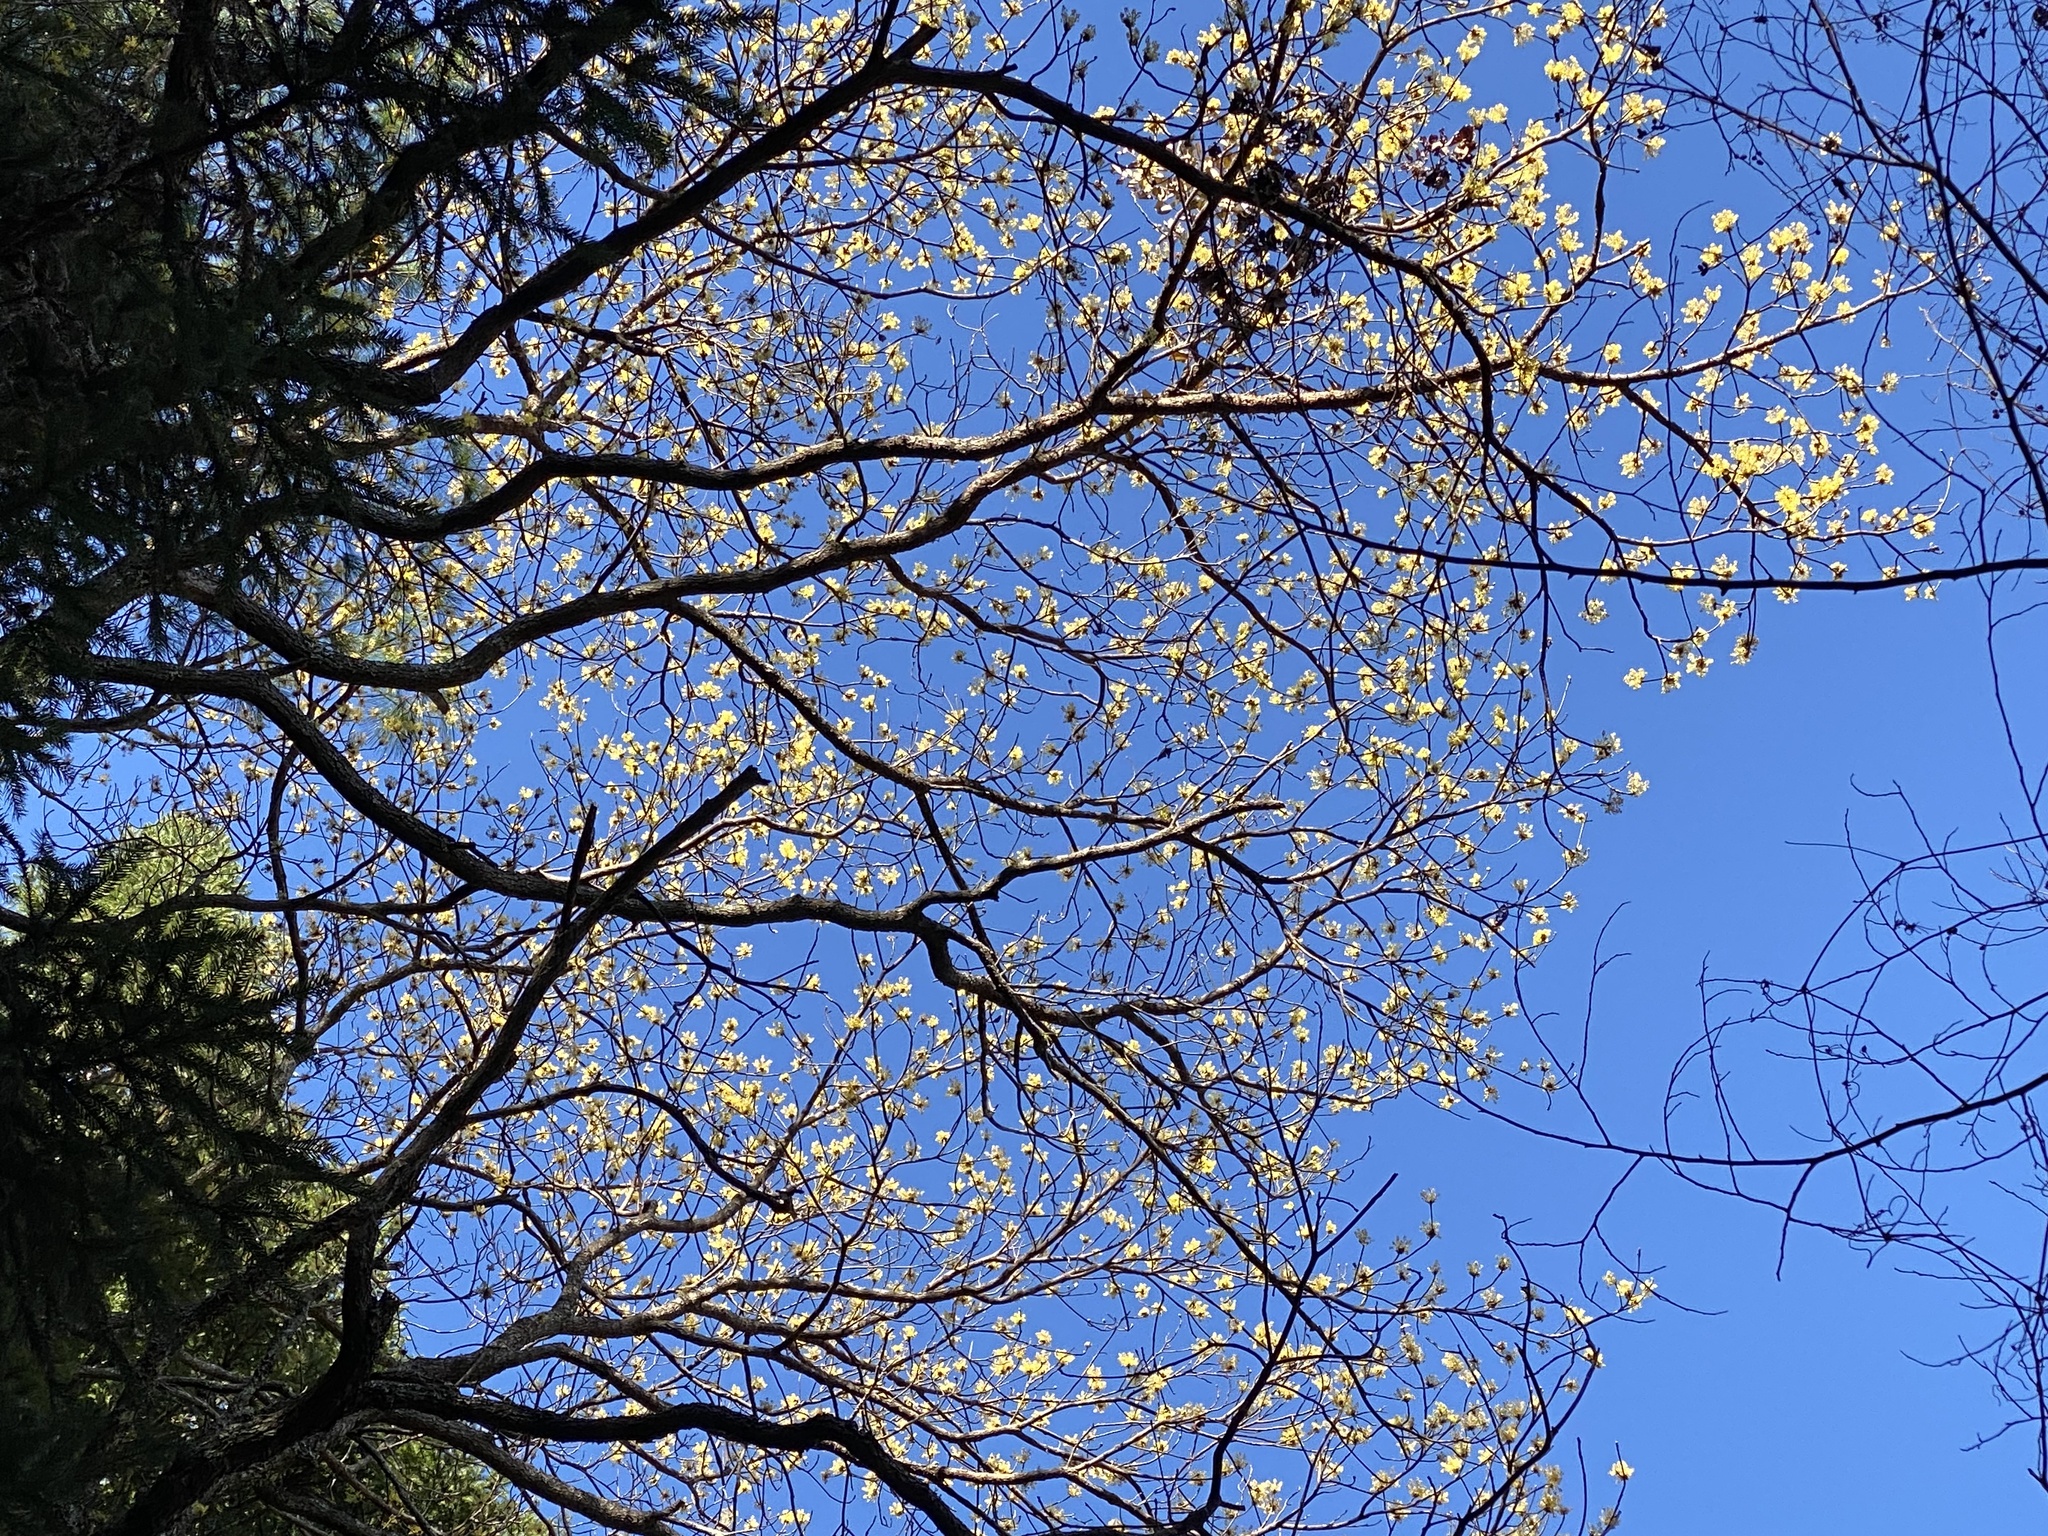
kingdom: Plantae
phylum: Tracheophyta
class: Magnoliopsida
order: Laurales
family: Lauraceae
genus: Sassafras
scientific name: Sassafras randaiense
